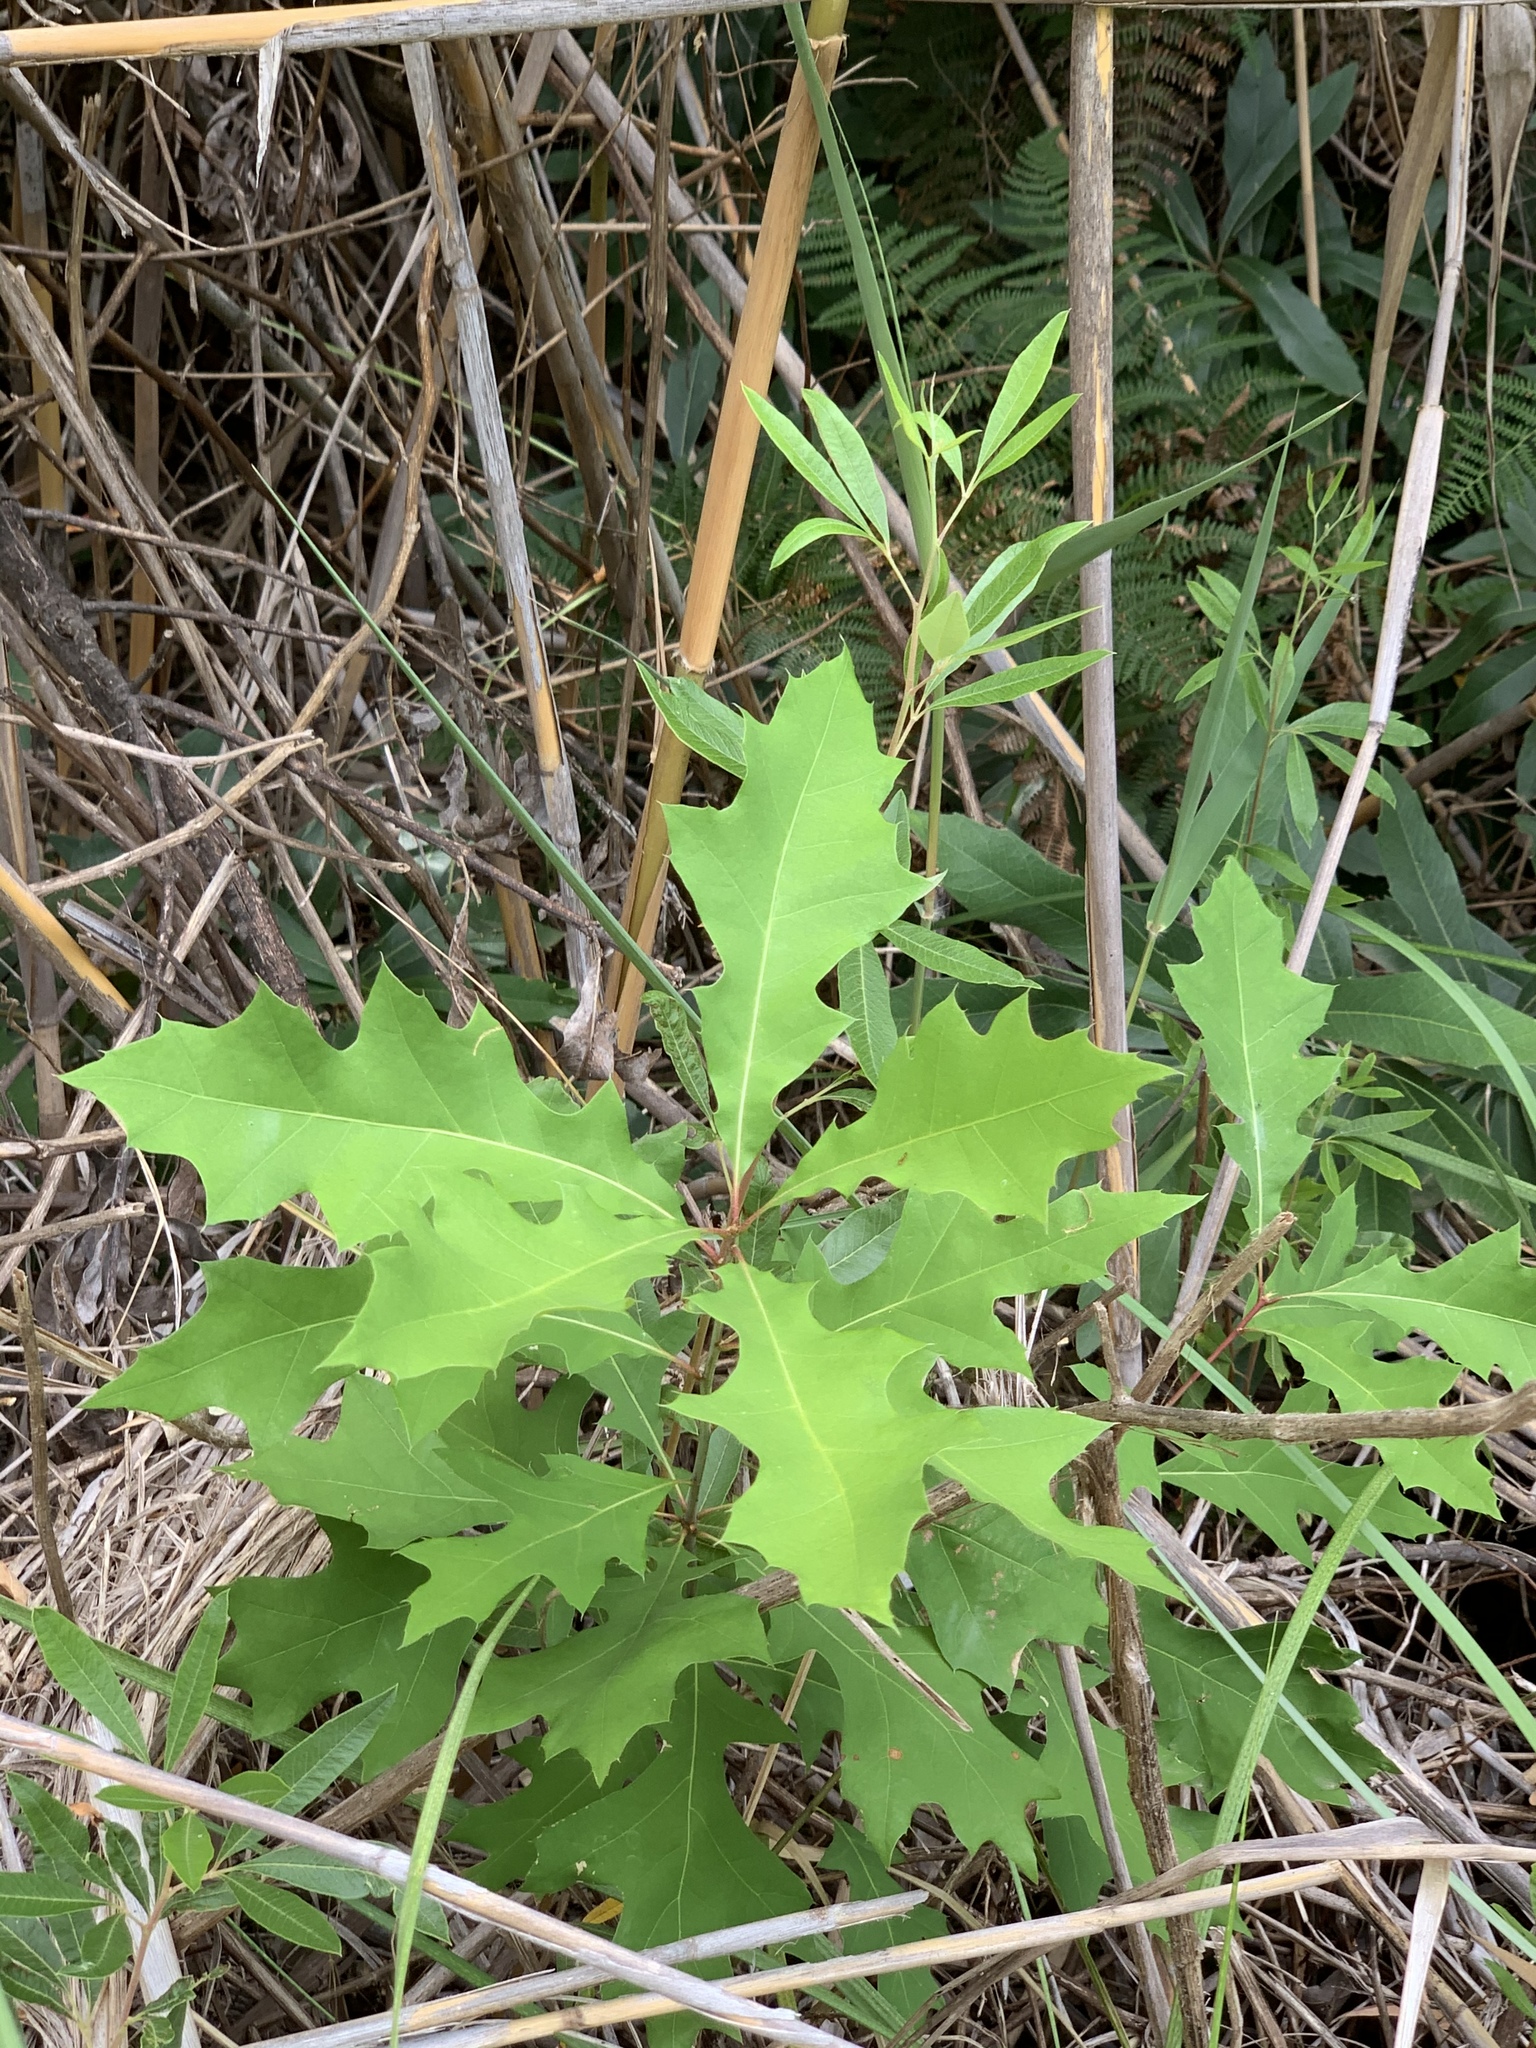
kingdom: Plantae
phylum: Tracheophyta
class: Magnoliopsida
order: Fagales
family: Fagaceae
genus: Quercus
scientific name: Quercus palustris
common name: Pin oak
